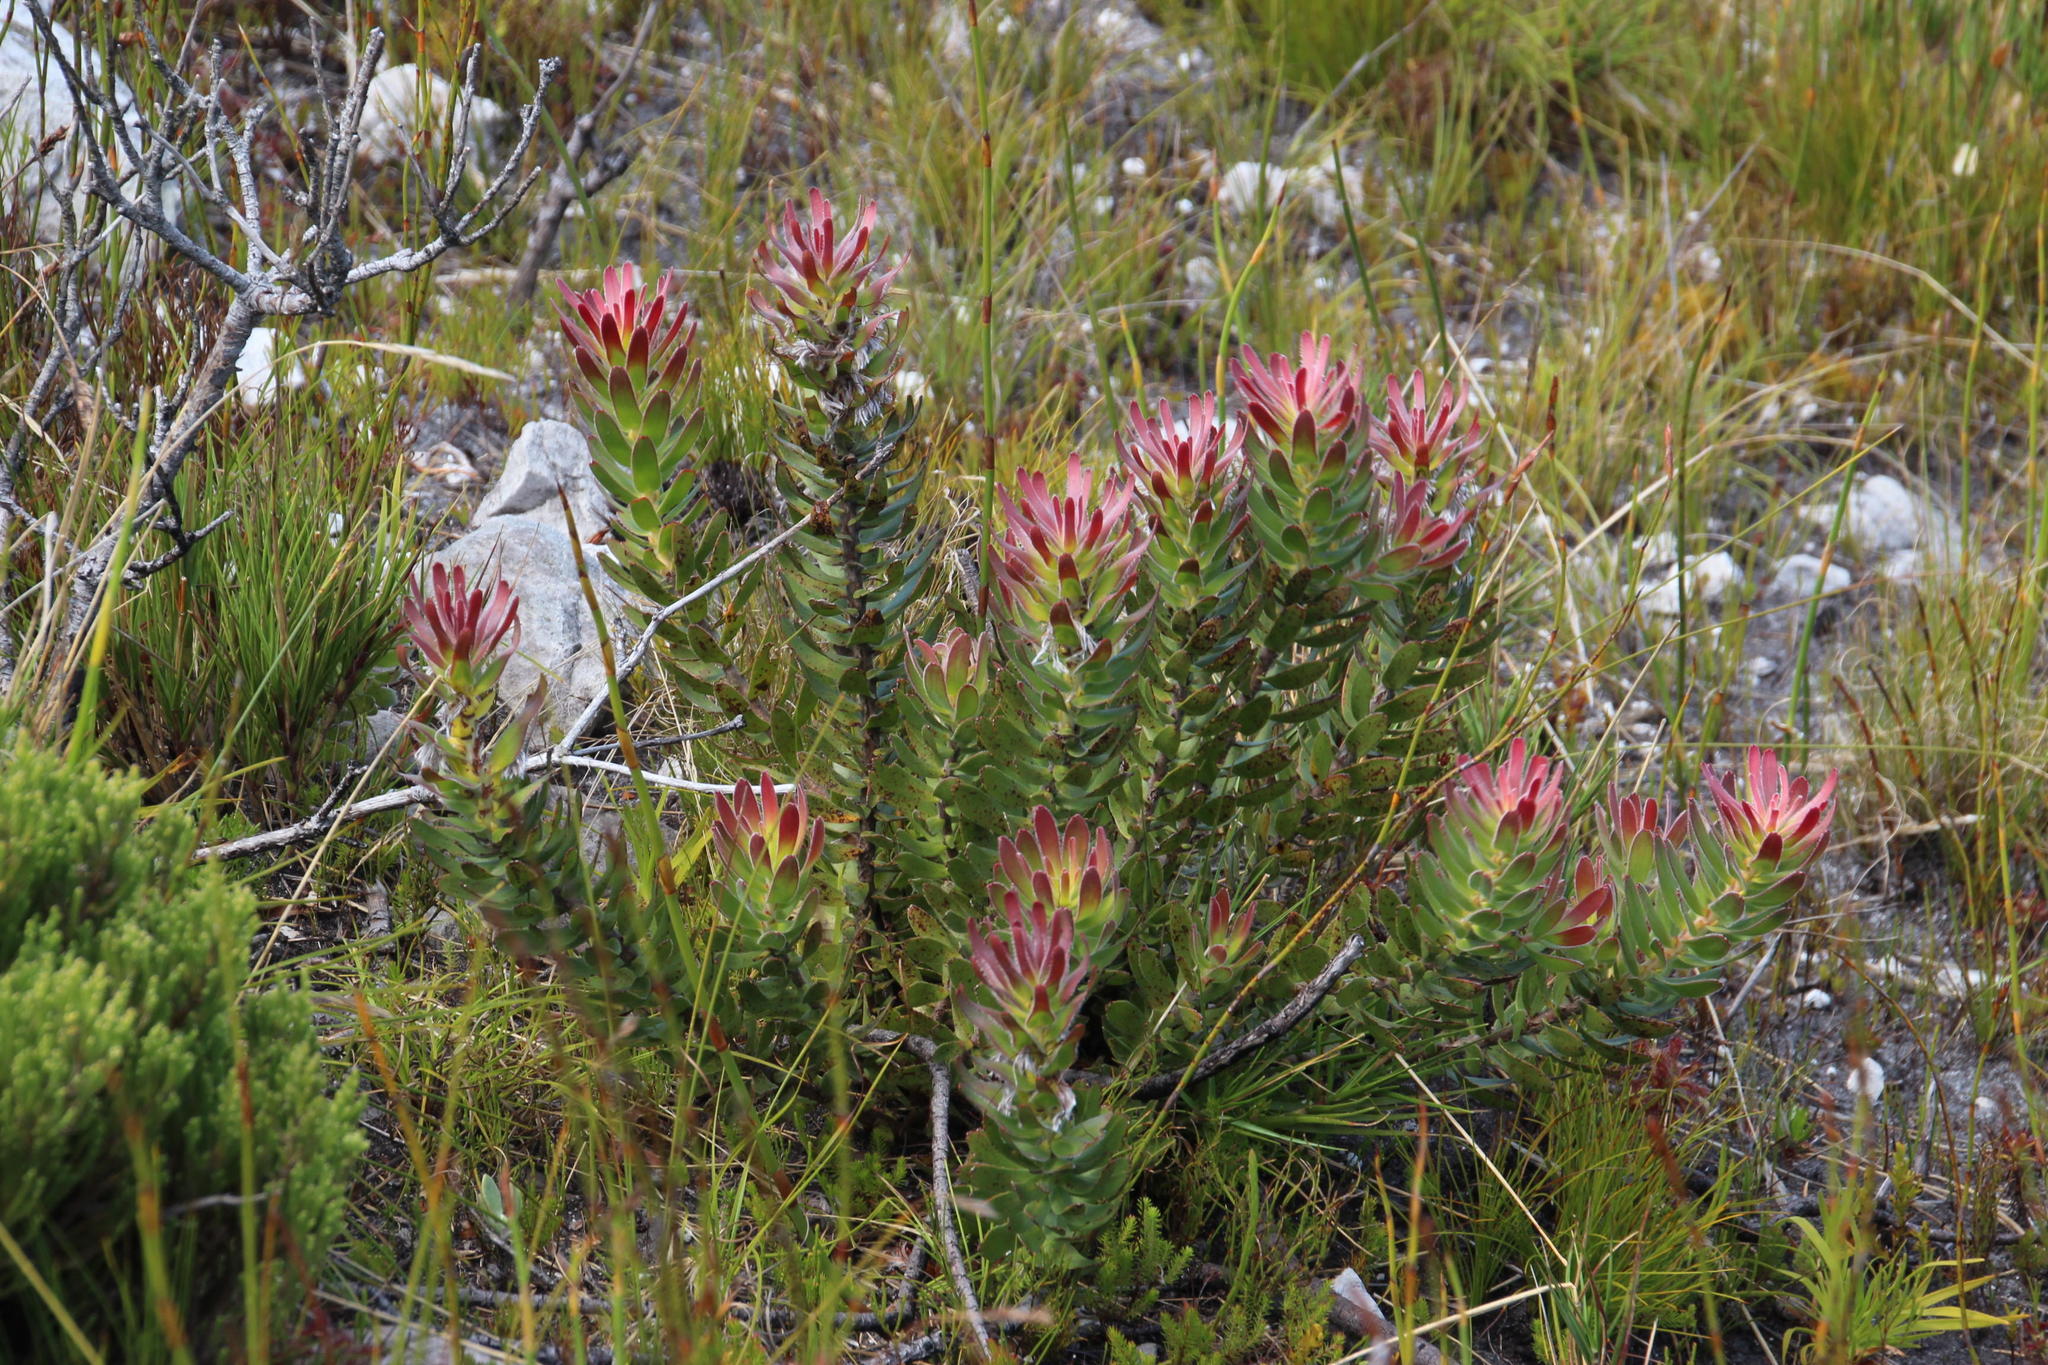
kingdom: Plantae
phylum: Tracheophyta
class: Magnoliopsida
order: Proteales
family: Proteaceae
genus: Mimetes
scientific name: Mimetes cucullatus
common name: Common pagoda
